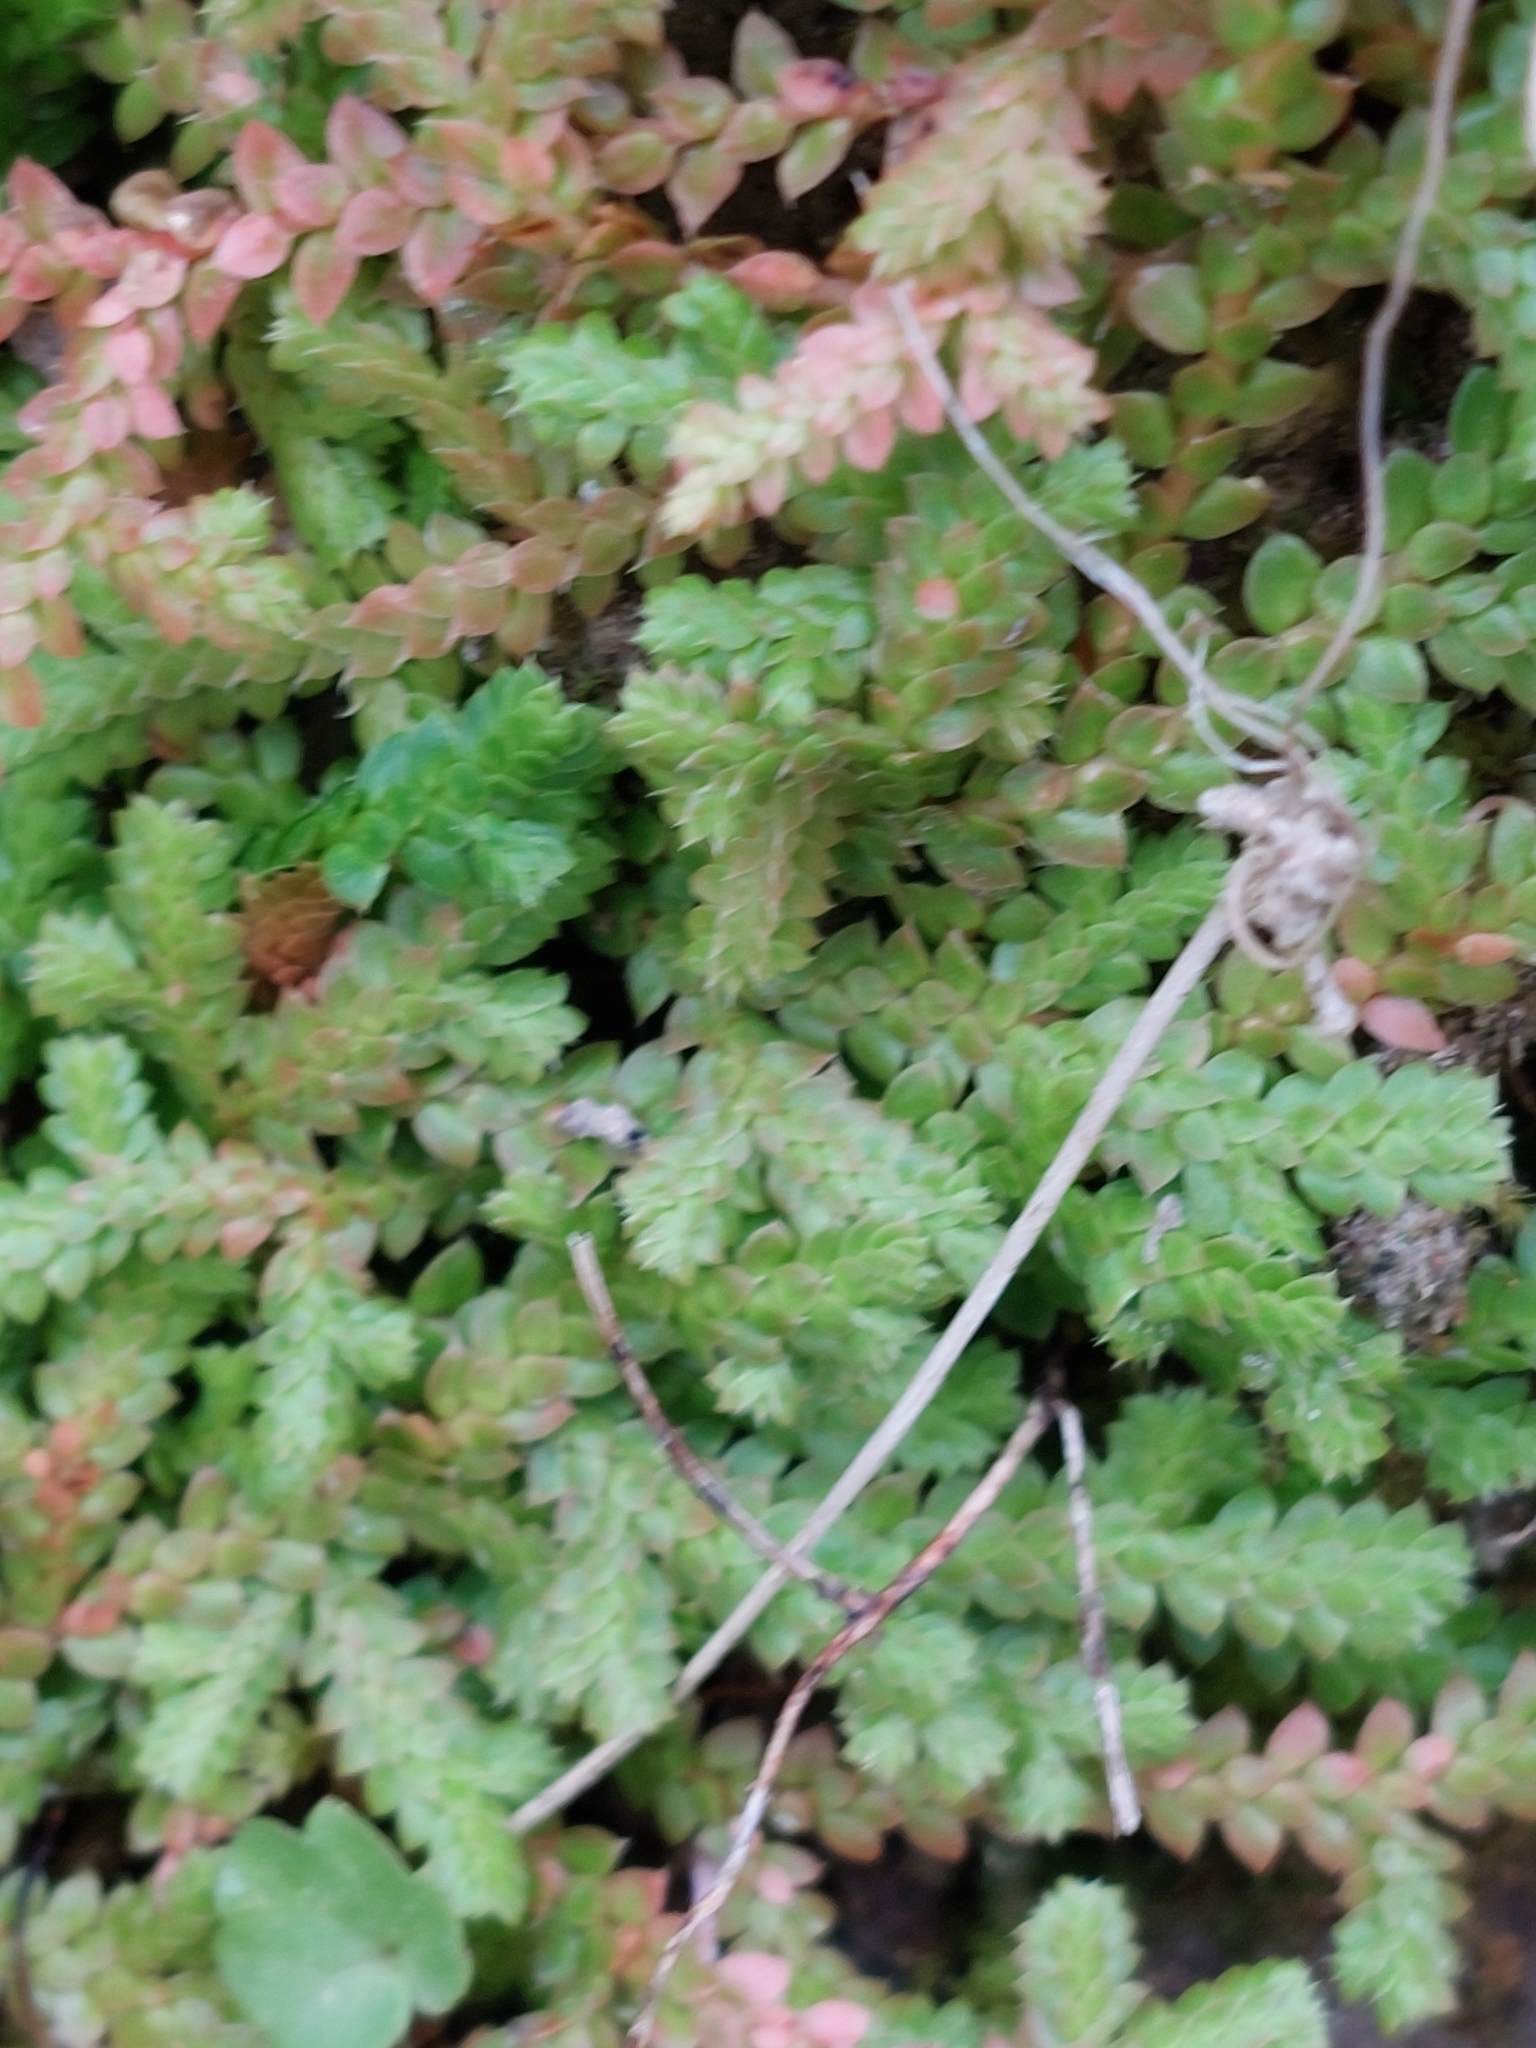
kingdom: Plantae
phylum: Tracheophyta
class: Lycopodiopsida
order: Selaginellales
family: Selaginellaceae
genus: Selaginella
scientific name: Selaginella denticulata
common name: Toothed-leaved clubmoss
